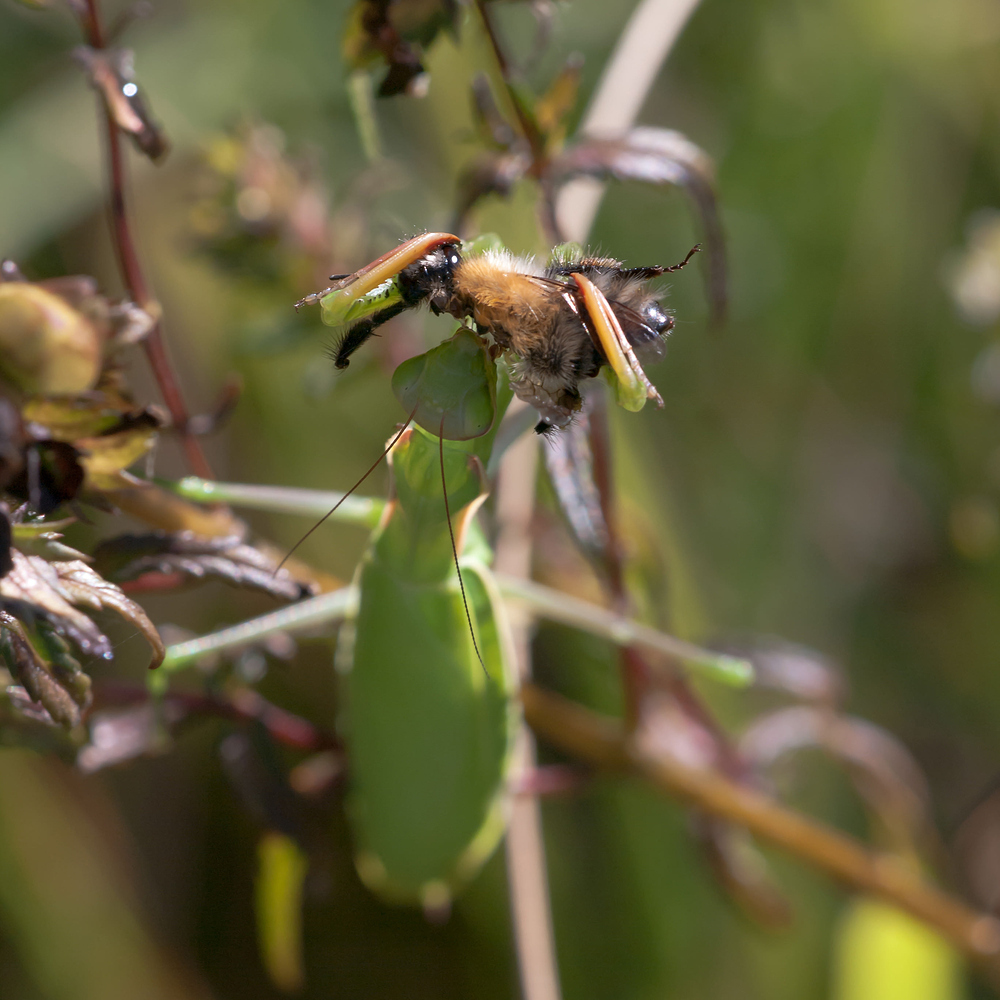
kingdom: Animalia
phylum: Arthropoda
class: Insecta
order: Mantodea
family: Mantidae
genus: Mantis
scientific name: Mantis religiosa
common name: Praying mantis
